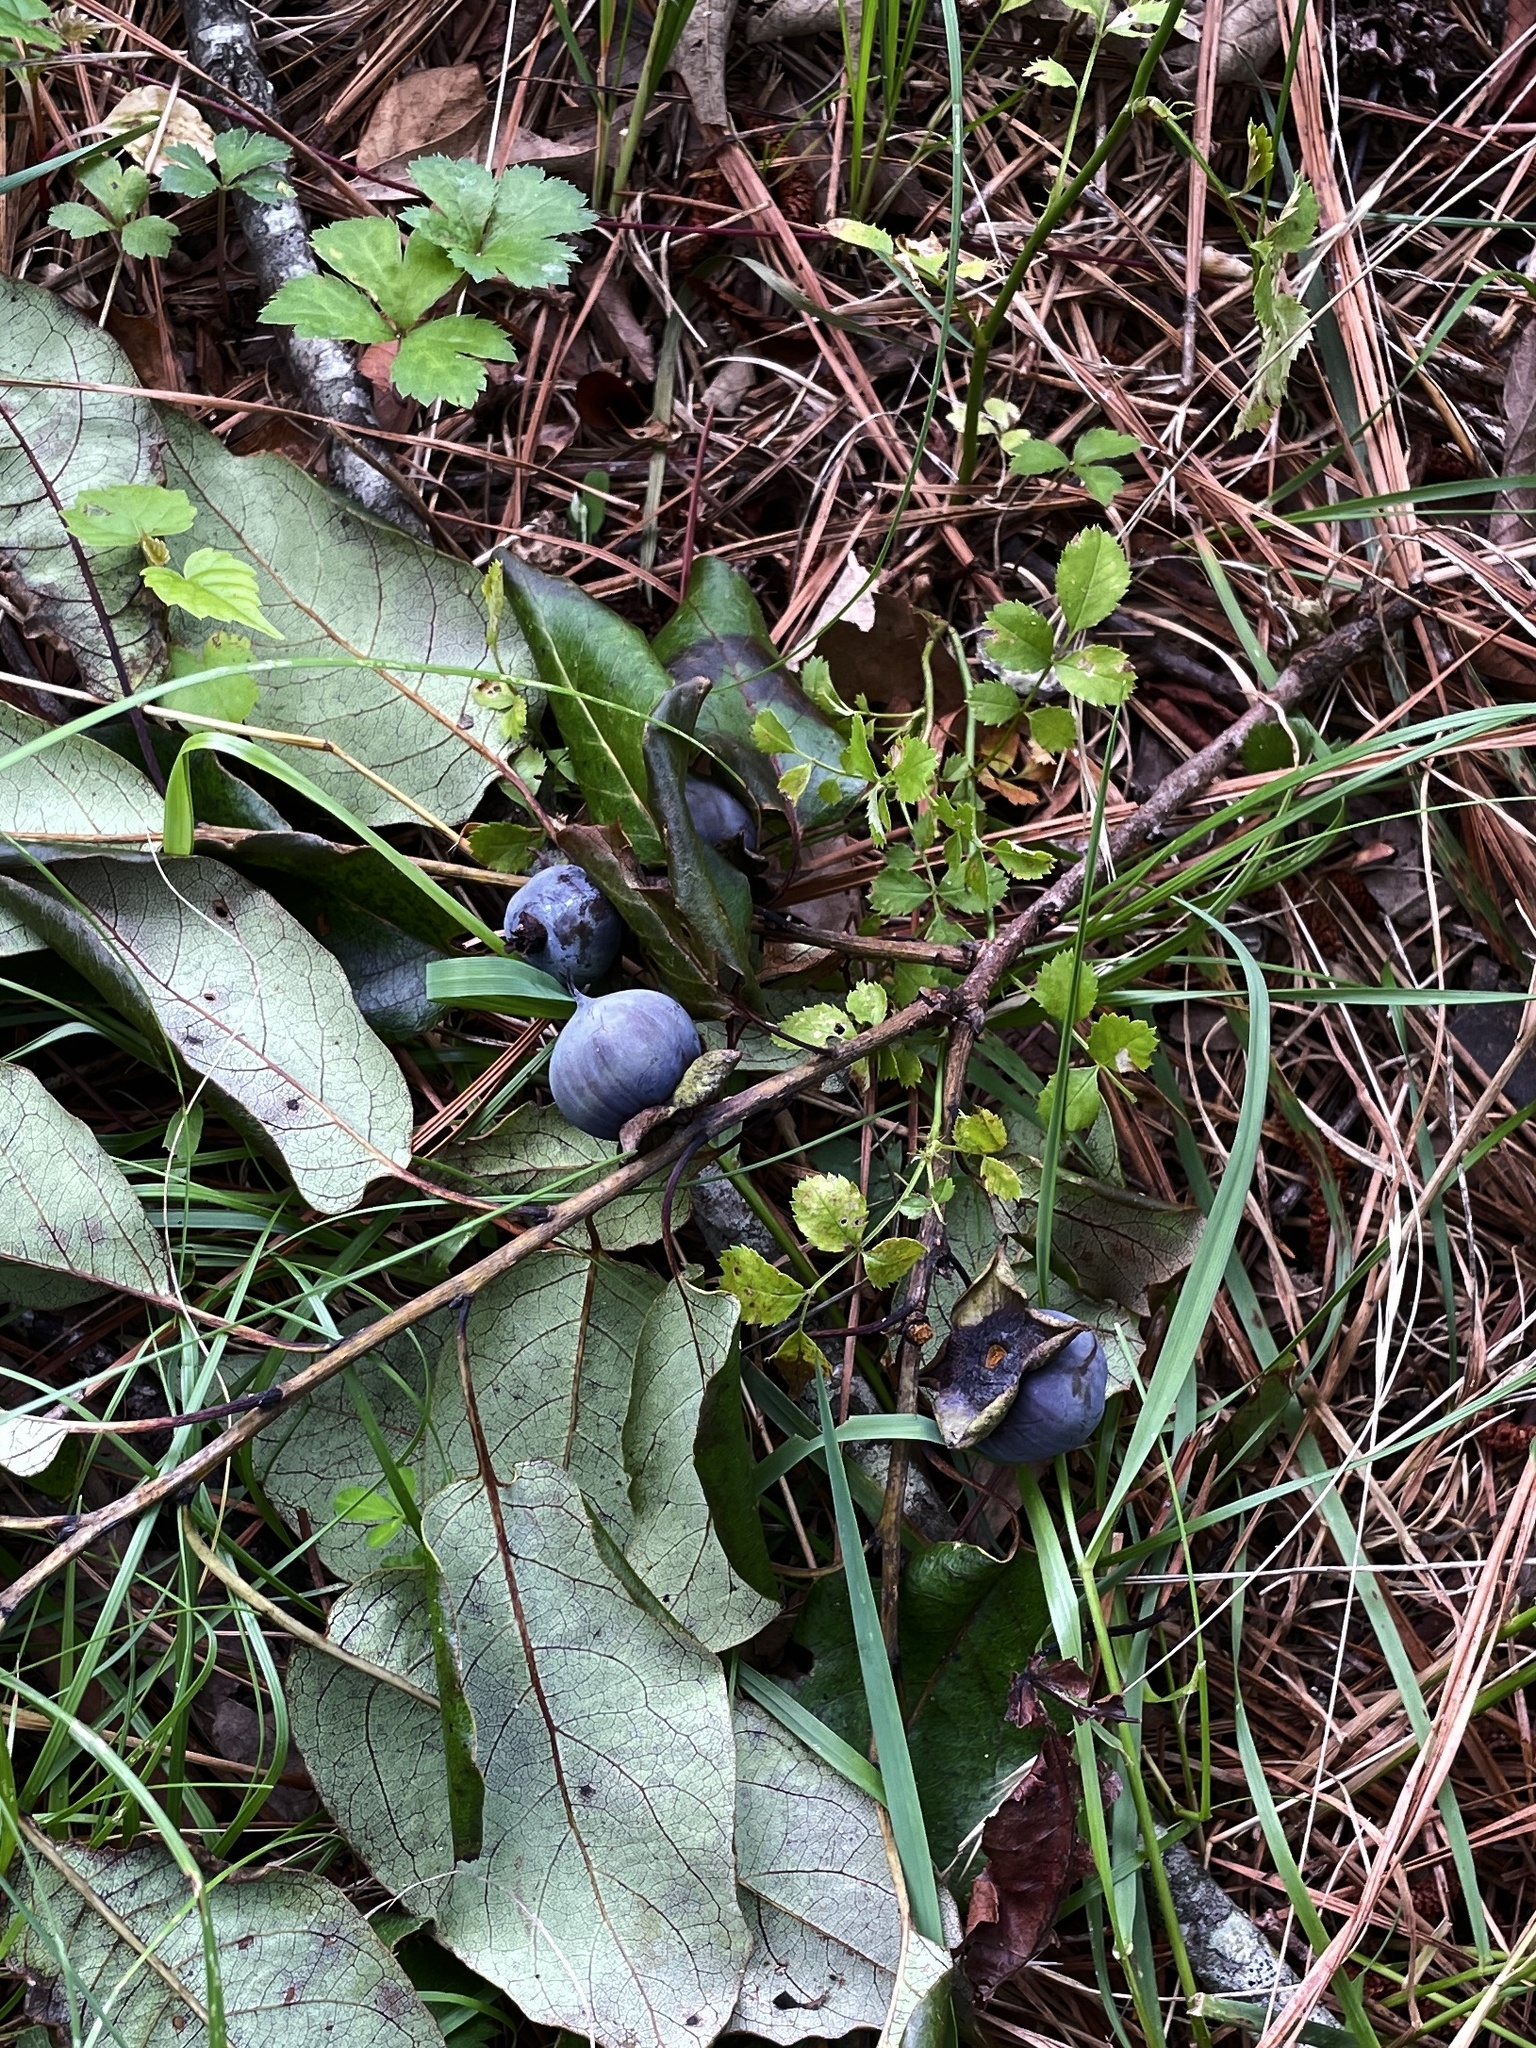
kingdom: Plantae
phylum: Tracheophyta
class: Magnoliopsida
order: Ericales
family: Ebenaceae
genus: Diospyros
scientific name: Diospyros virginiana
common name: Persimmon
